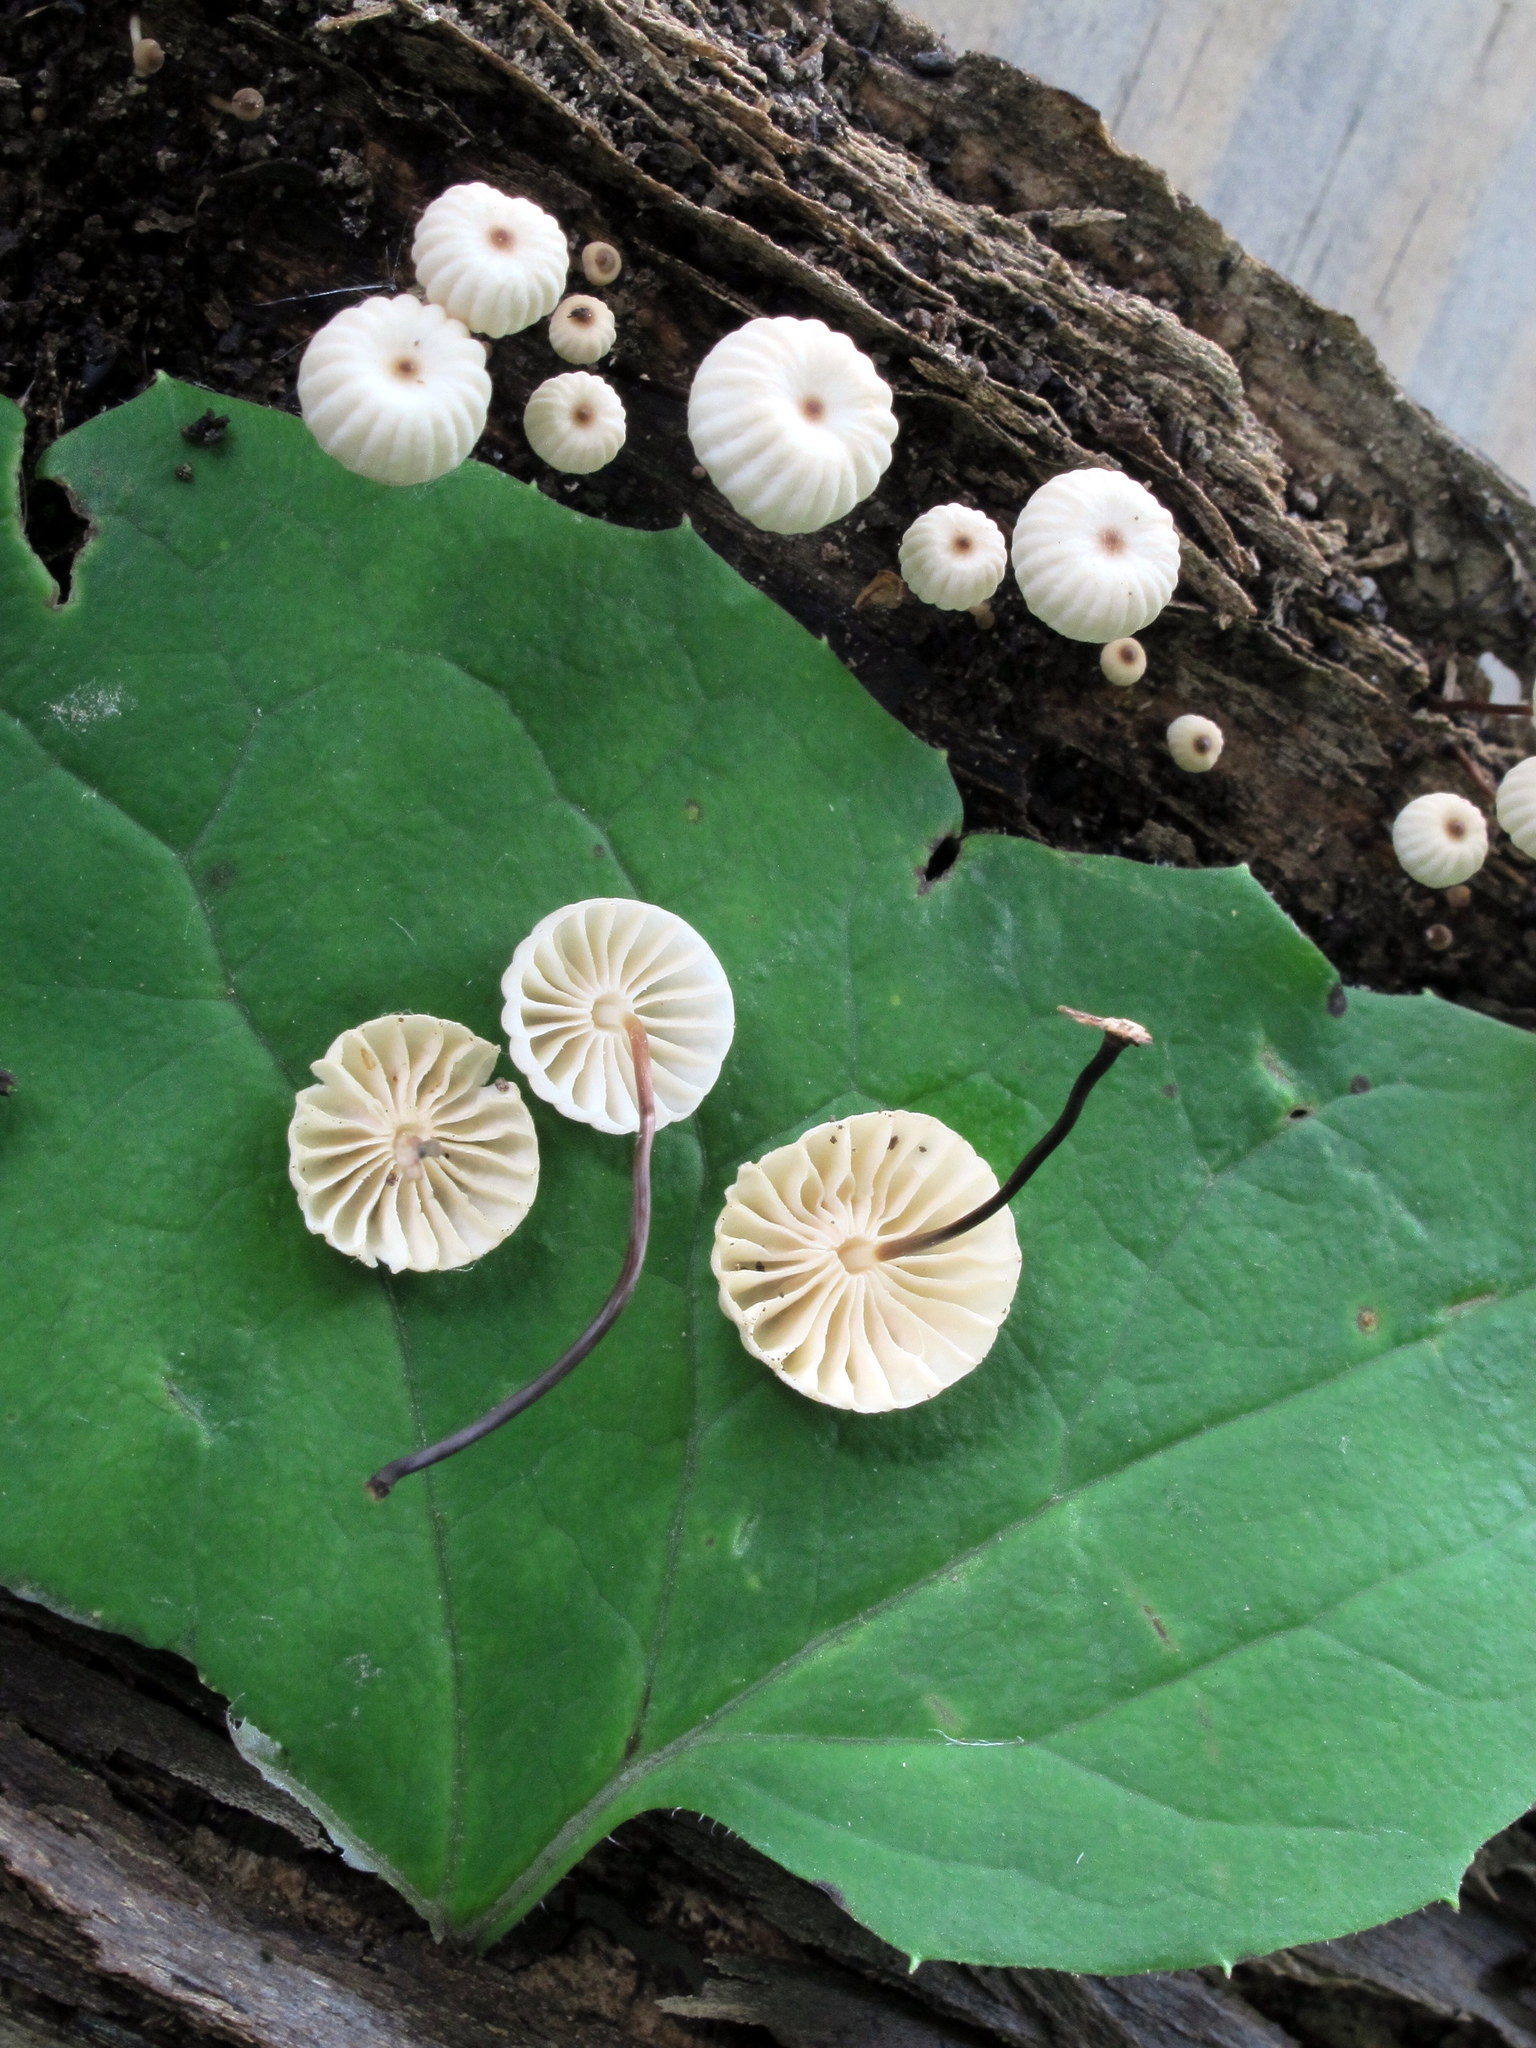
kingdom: Fungi
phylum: Basidiomycota
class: Agaricomycetes
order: Agaricales
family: Marasmiaceae
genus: Marasmius
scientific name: Marasmius rotula
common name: Collared parachute
